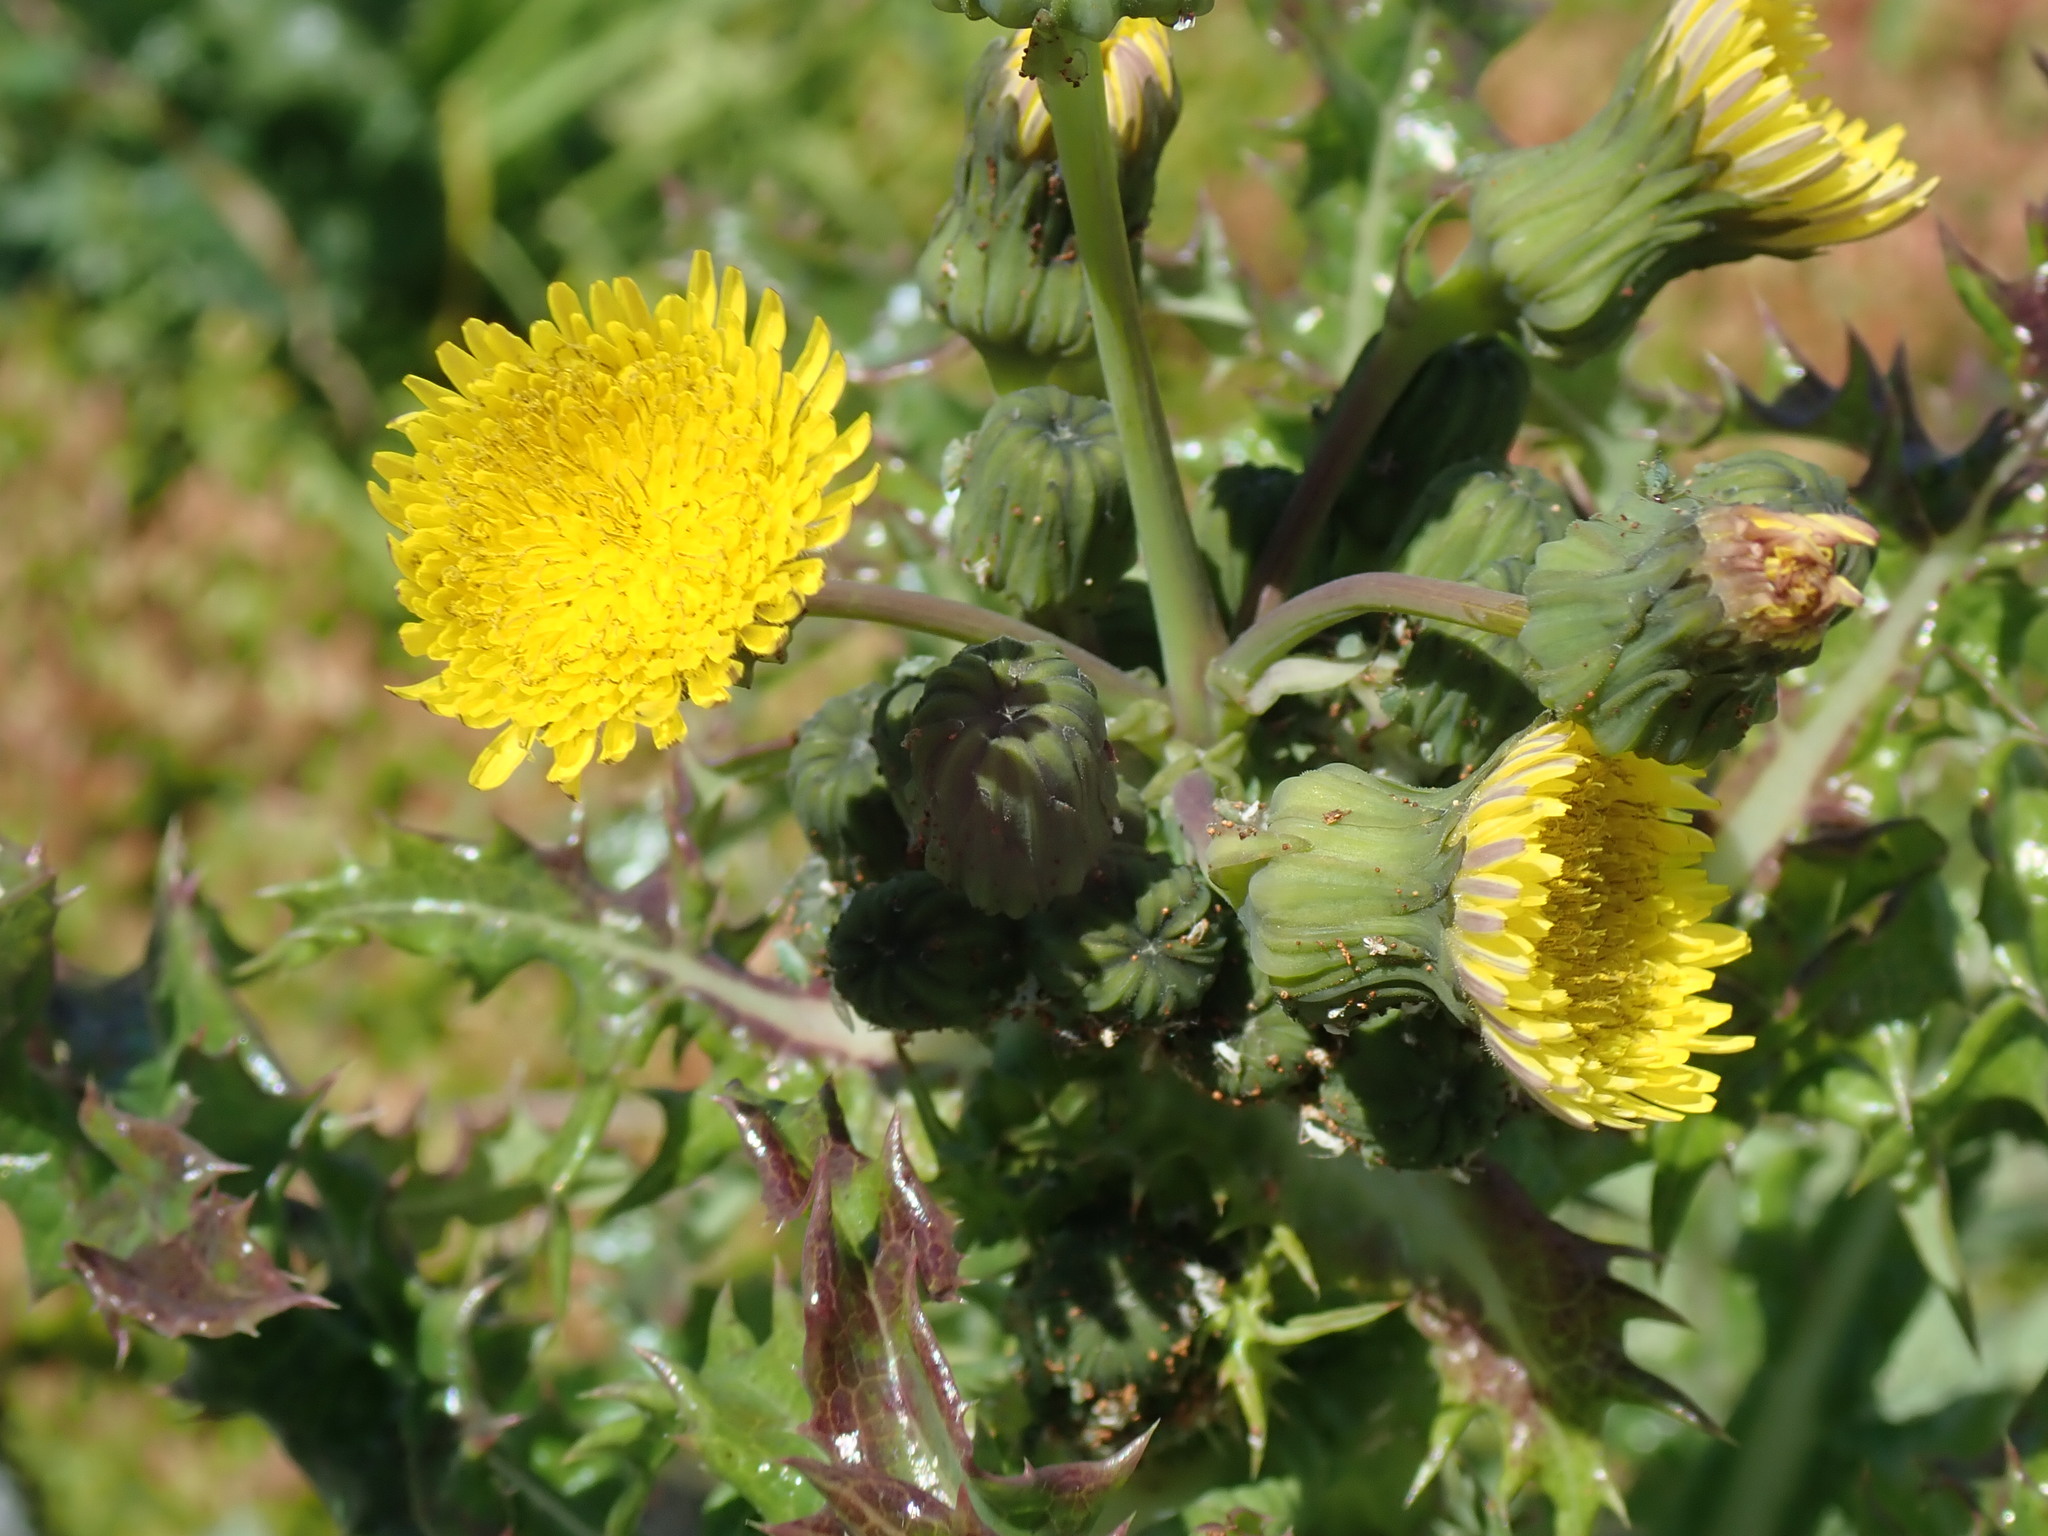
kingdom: Plantae
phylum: Tracheophyta
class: Magnoliopsida
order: Asterales
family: Asteraceae
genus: Sonchus
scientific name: Sonchus asper
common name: Prickly sow-thistle
